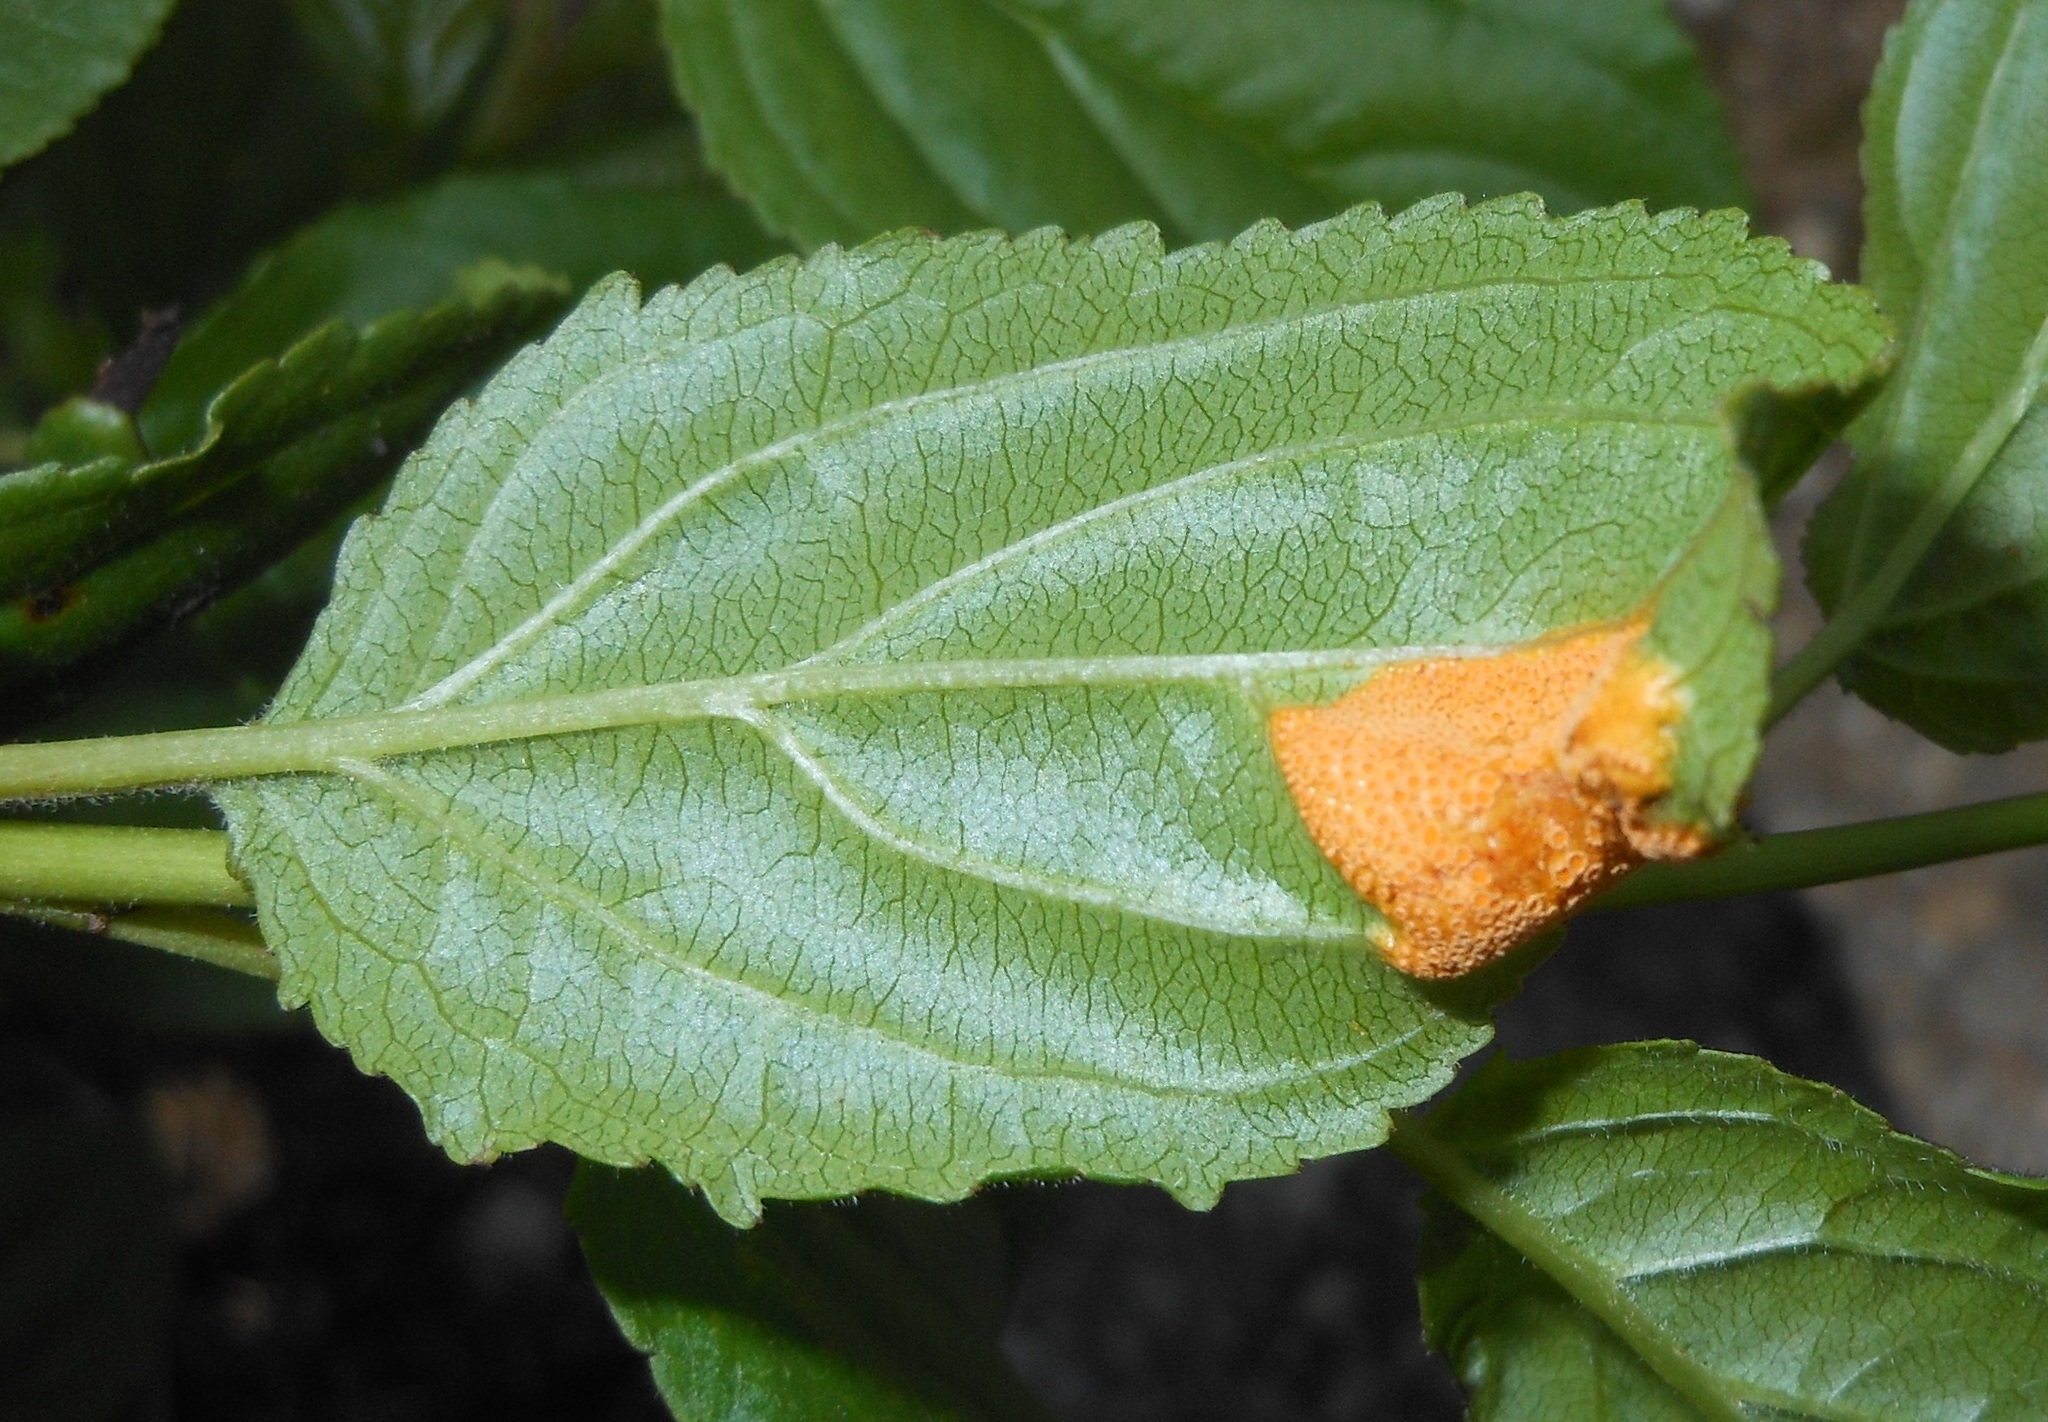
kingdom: Fungi
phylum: Basidiomycota
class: Pucciniomycetes
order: Pucciniales
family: Pucciniaceae
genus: Puccinia
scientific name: Puccinia coronata
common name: Crown rust
